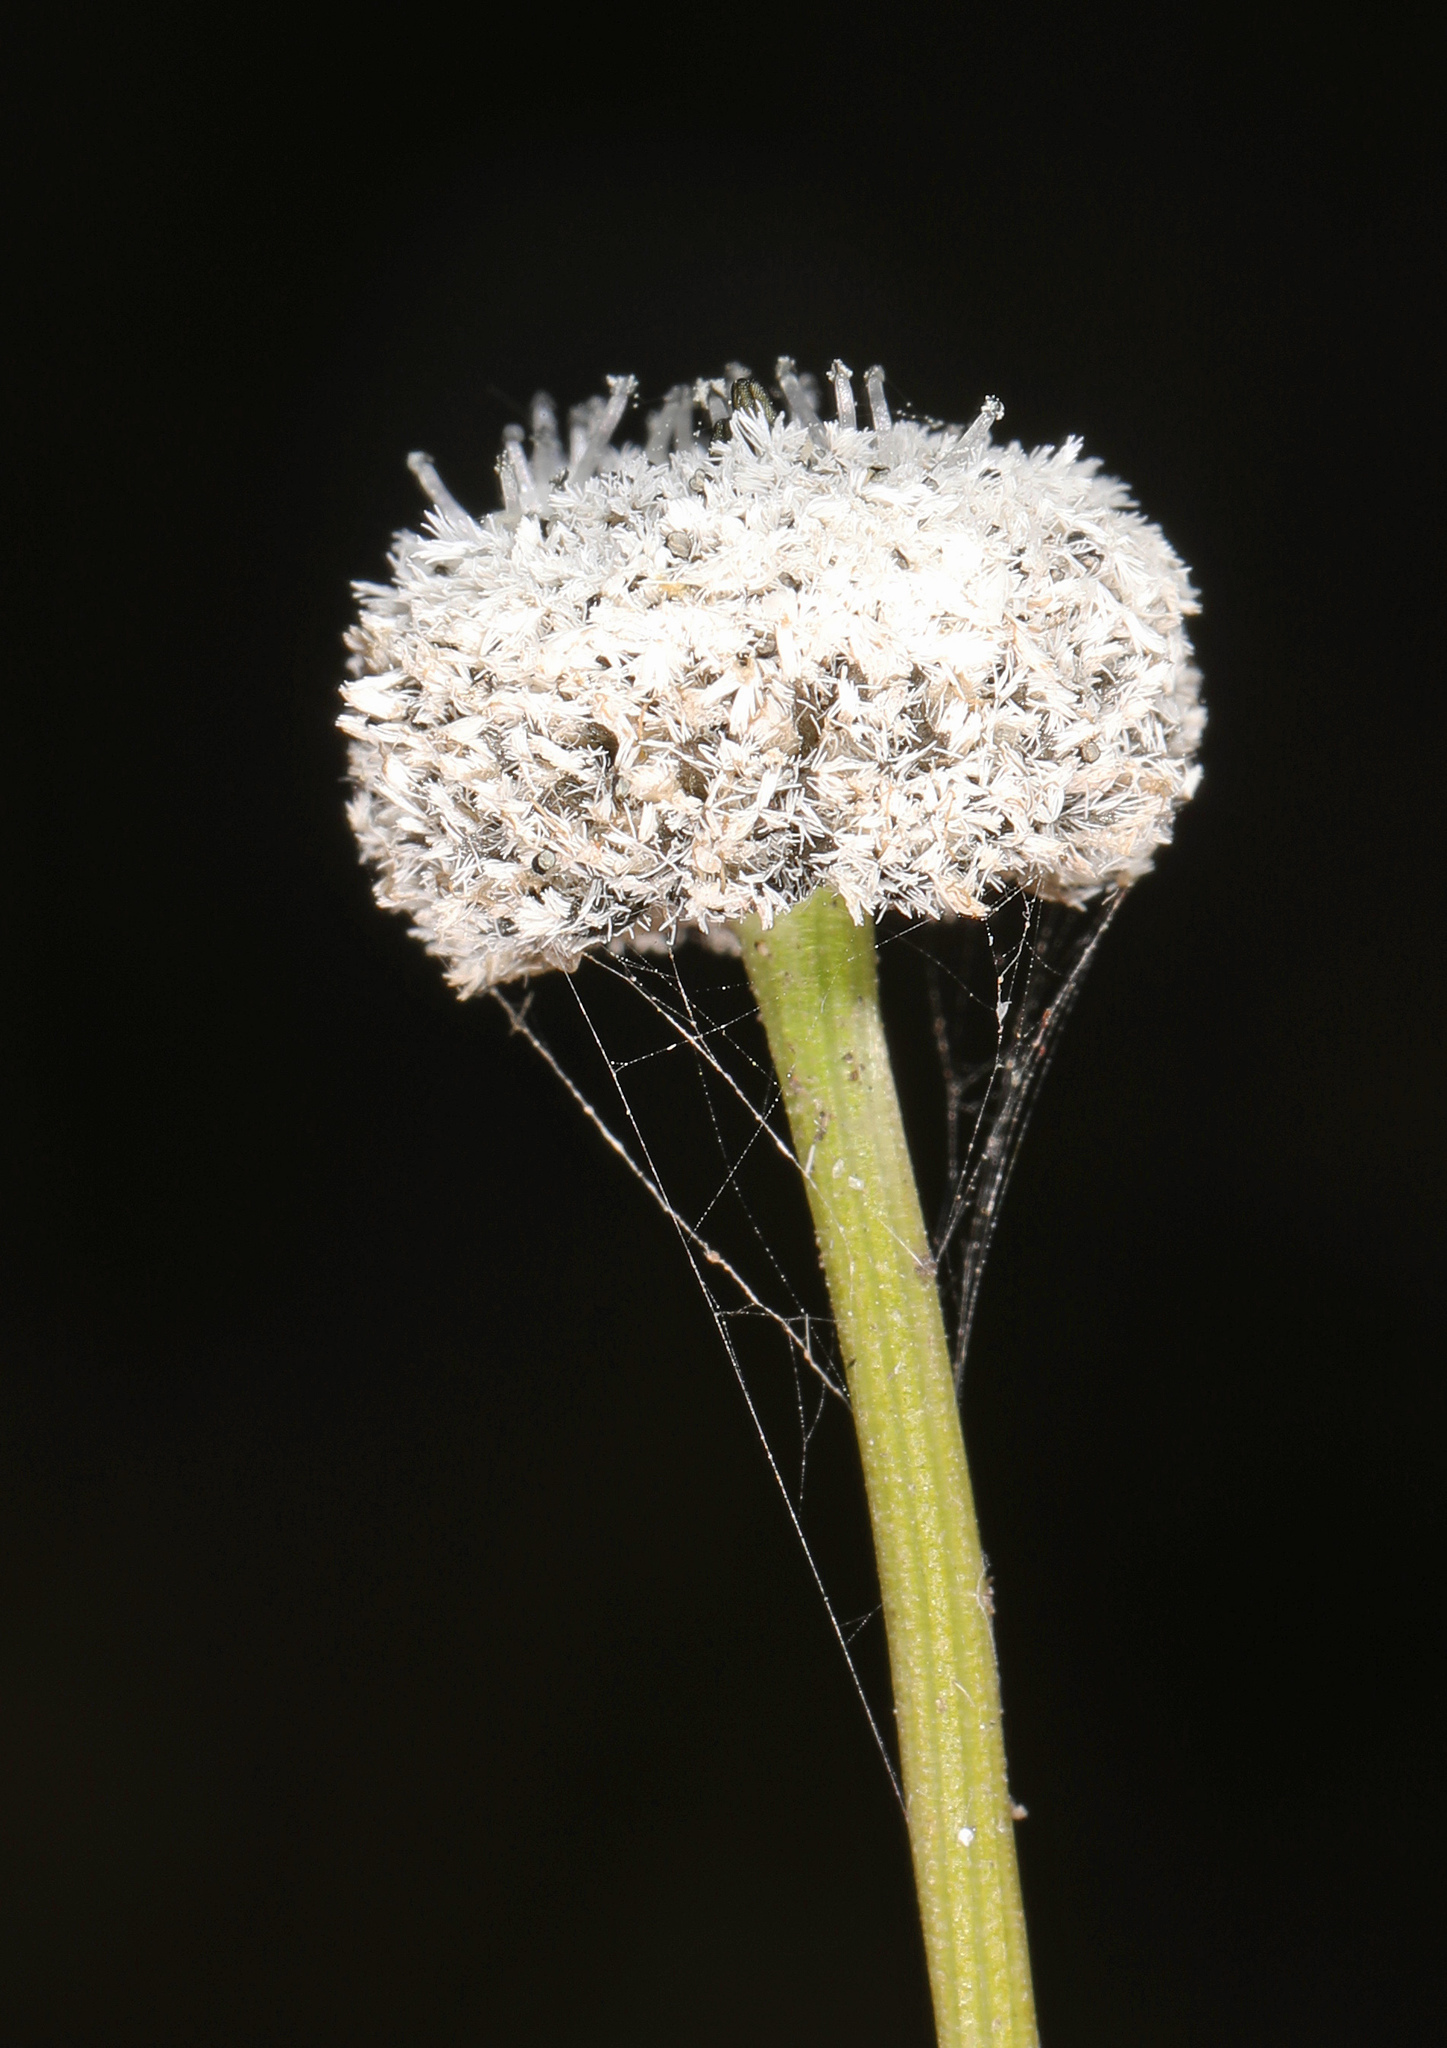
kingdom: Plantae
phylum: Tracheophyta
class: Liliopsida
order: Poales
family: Eriocaulaceae
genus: Eriocaulon
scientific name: Eriocaulon compressum
